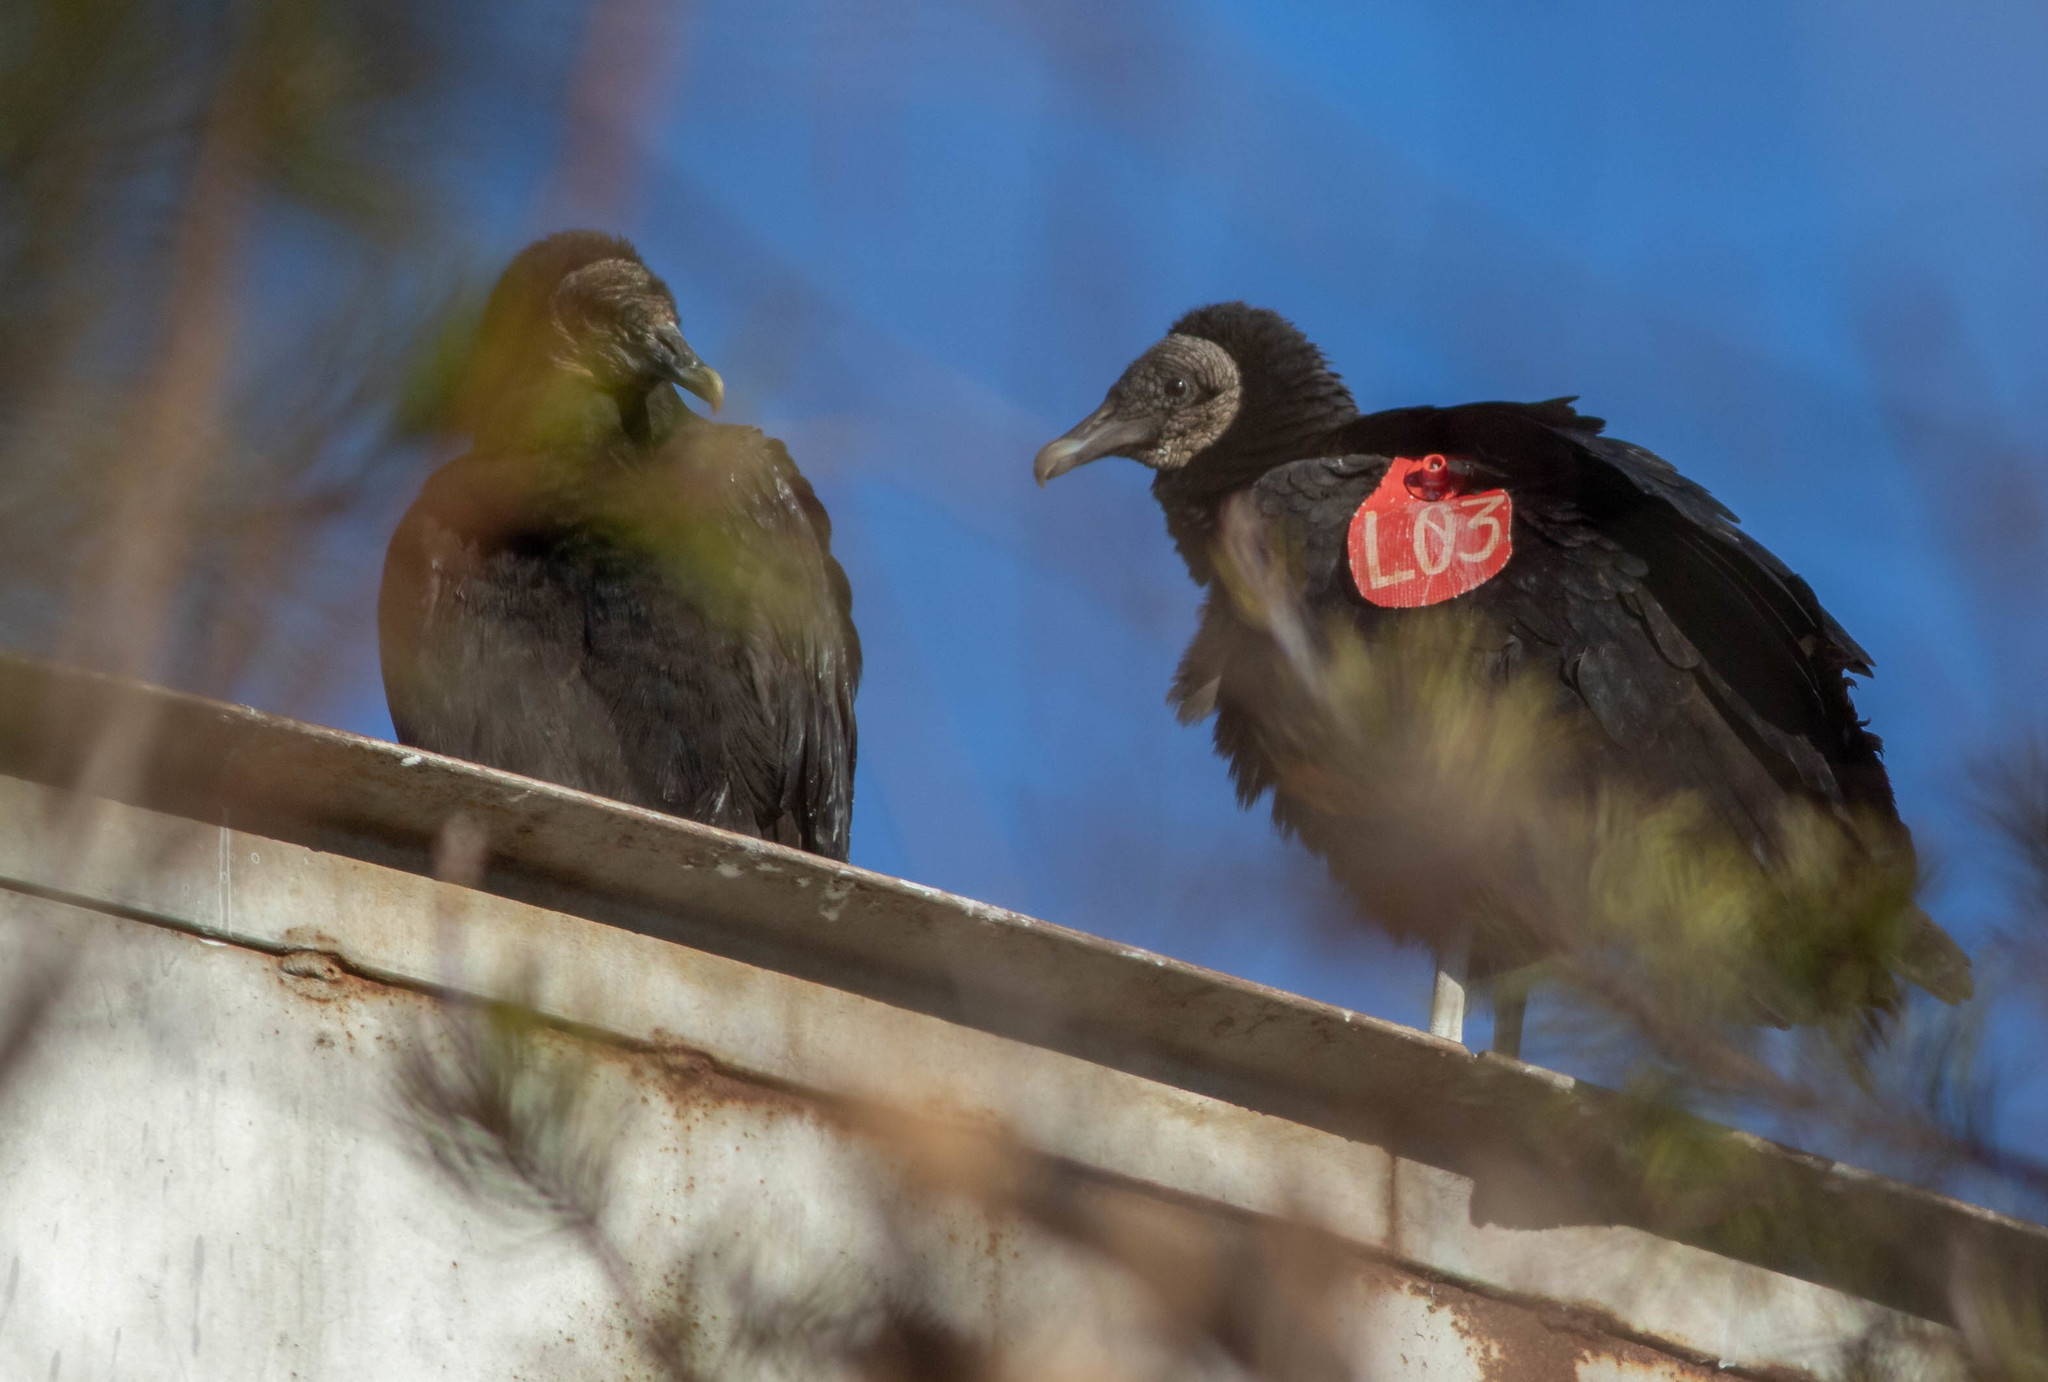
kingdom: Animalia
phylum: Chordata
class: Aves
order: Accipitriformes
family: Cathartidae
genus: Coragyps
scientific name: Coragyps atratus
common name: Black vulture
